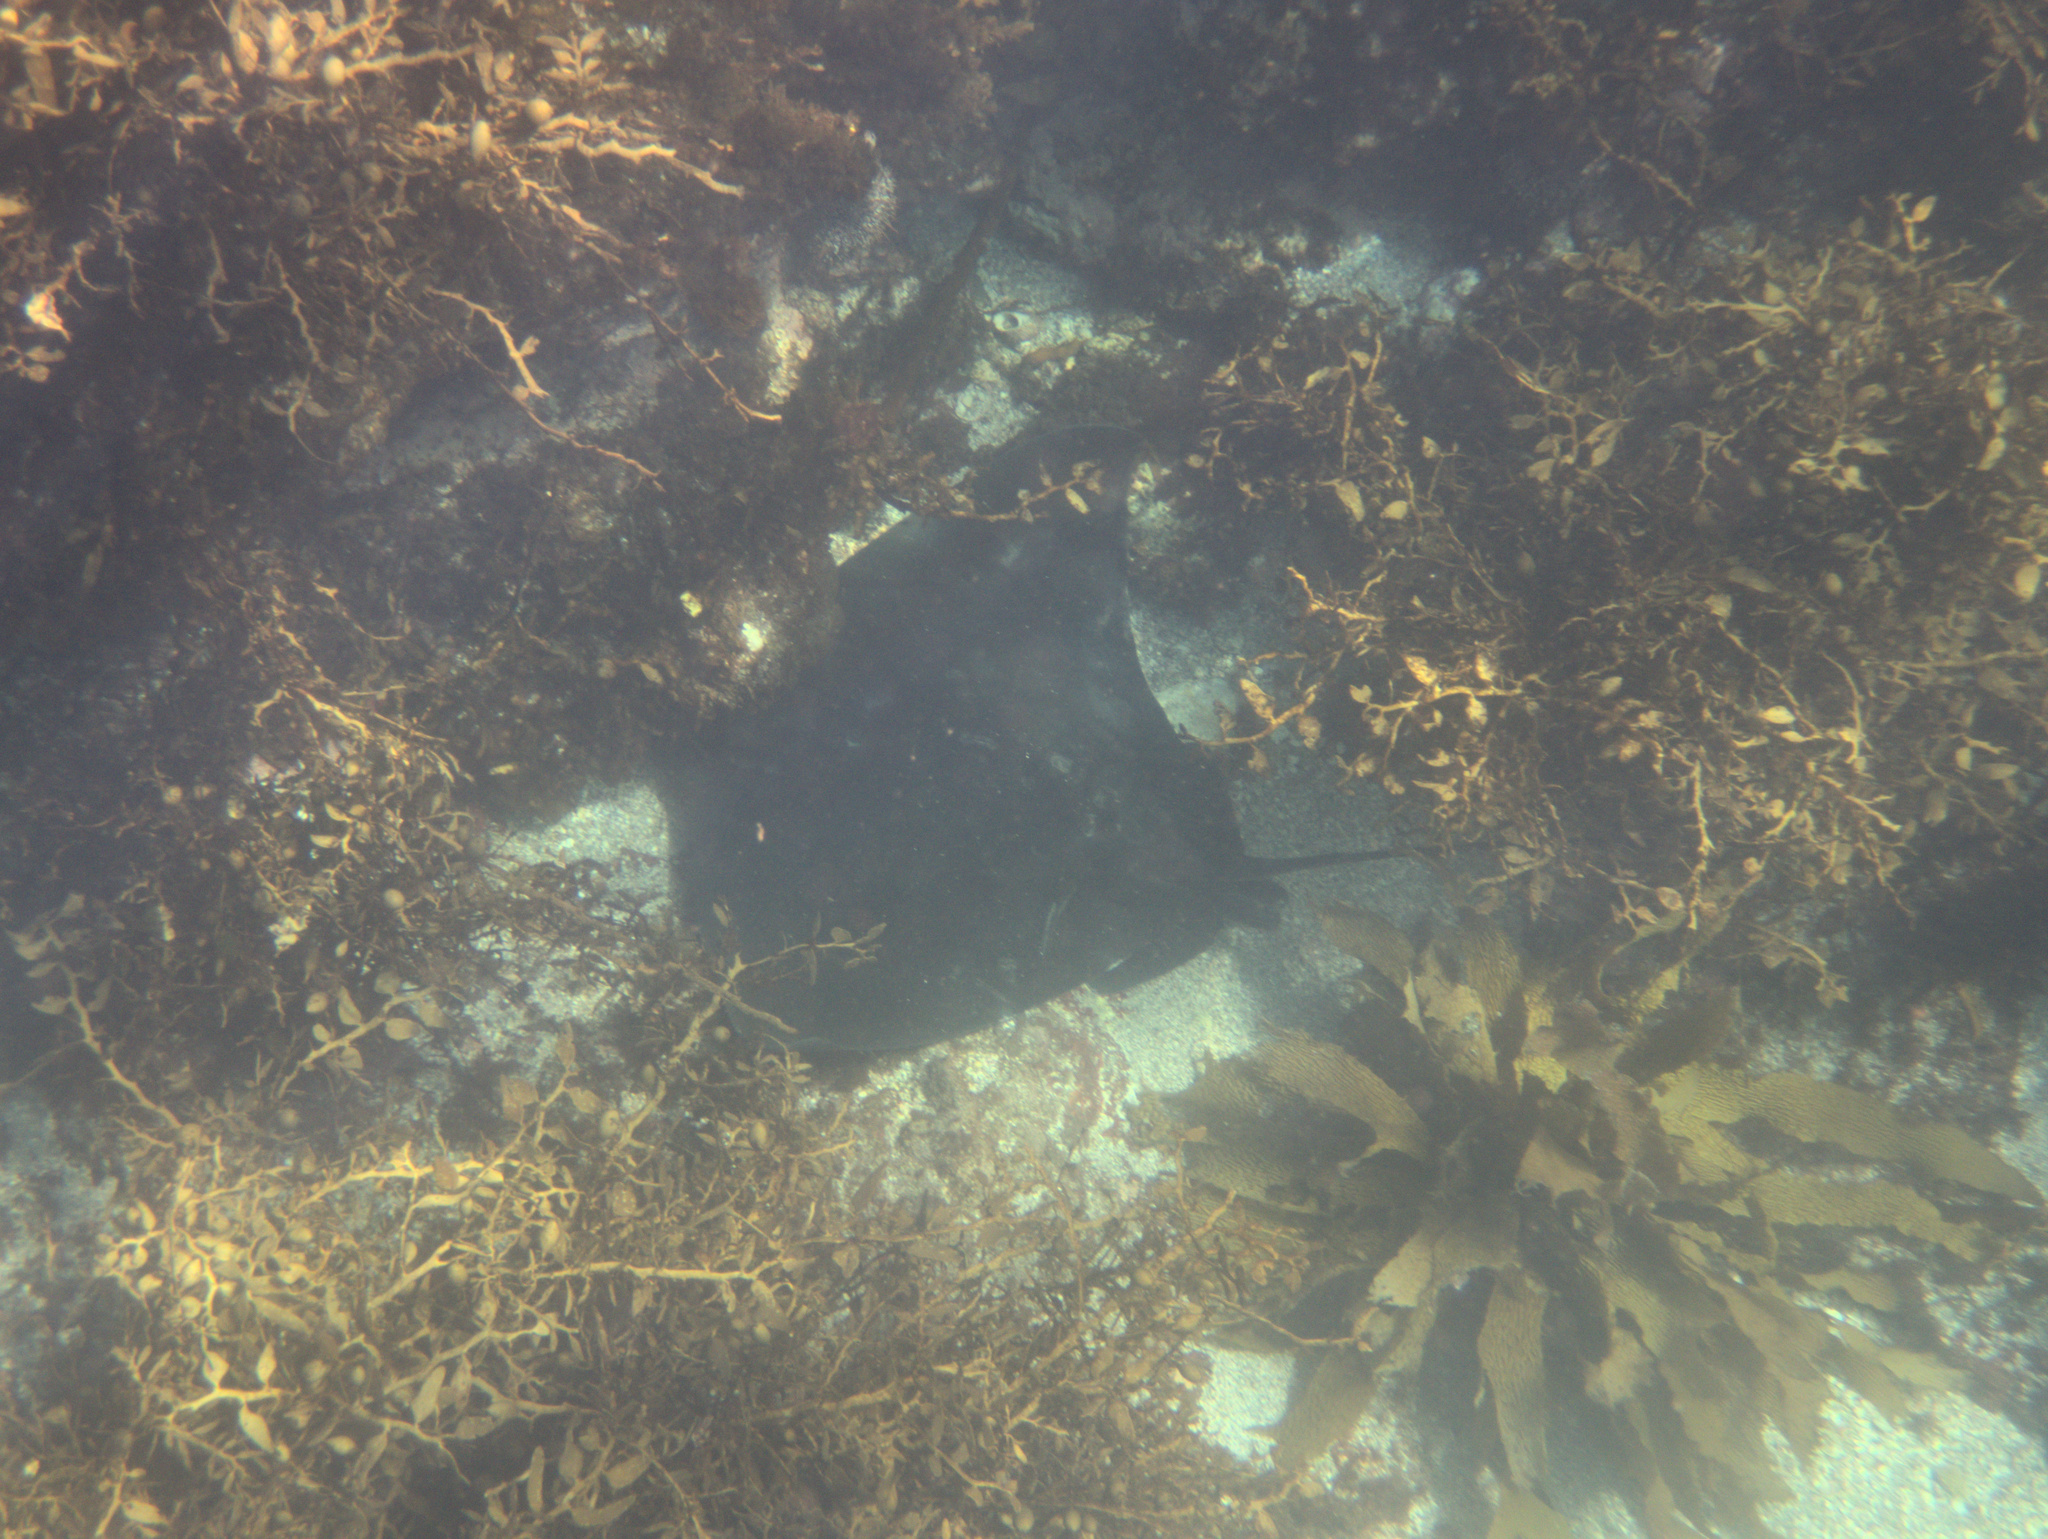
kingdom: Animalia
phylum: Chordata
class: Elasmobranchii
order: Myliobatiformes
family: Myliobatidae
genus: Myliobatis
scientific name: Myliobatis tenuicaudatus
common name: Eagle ray
